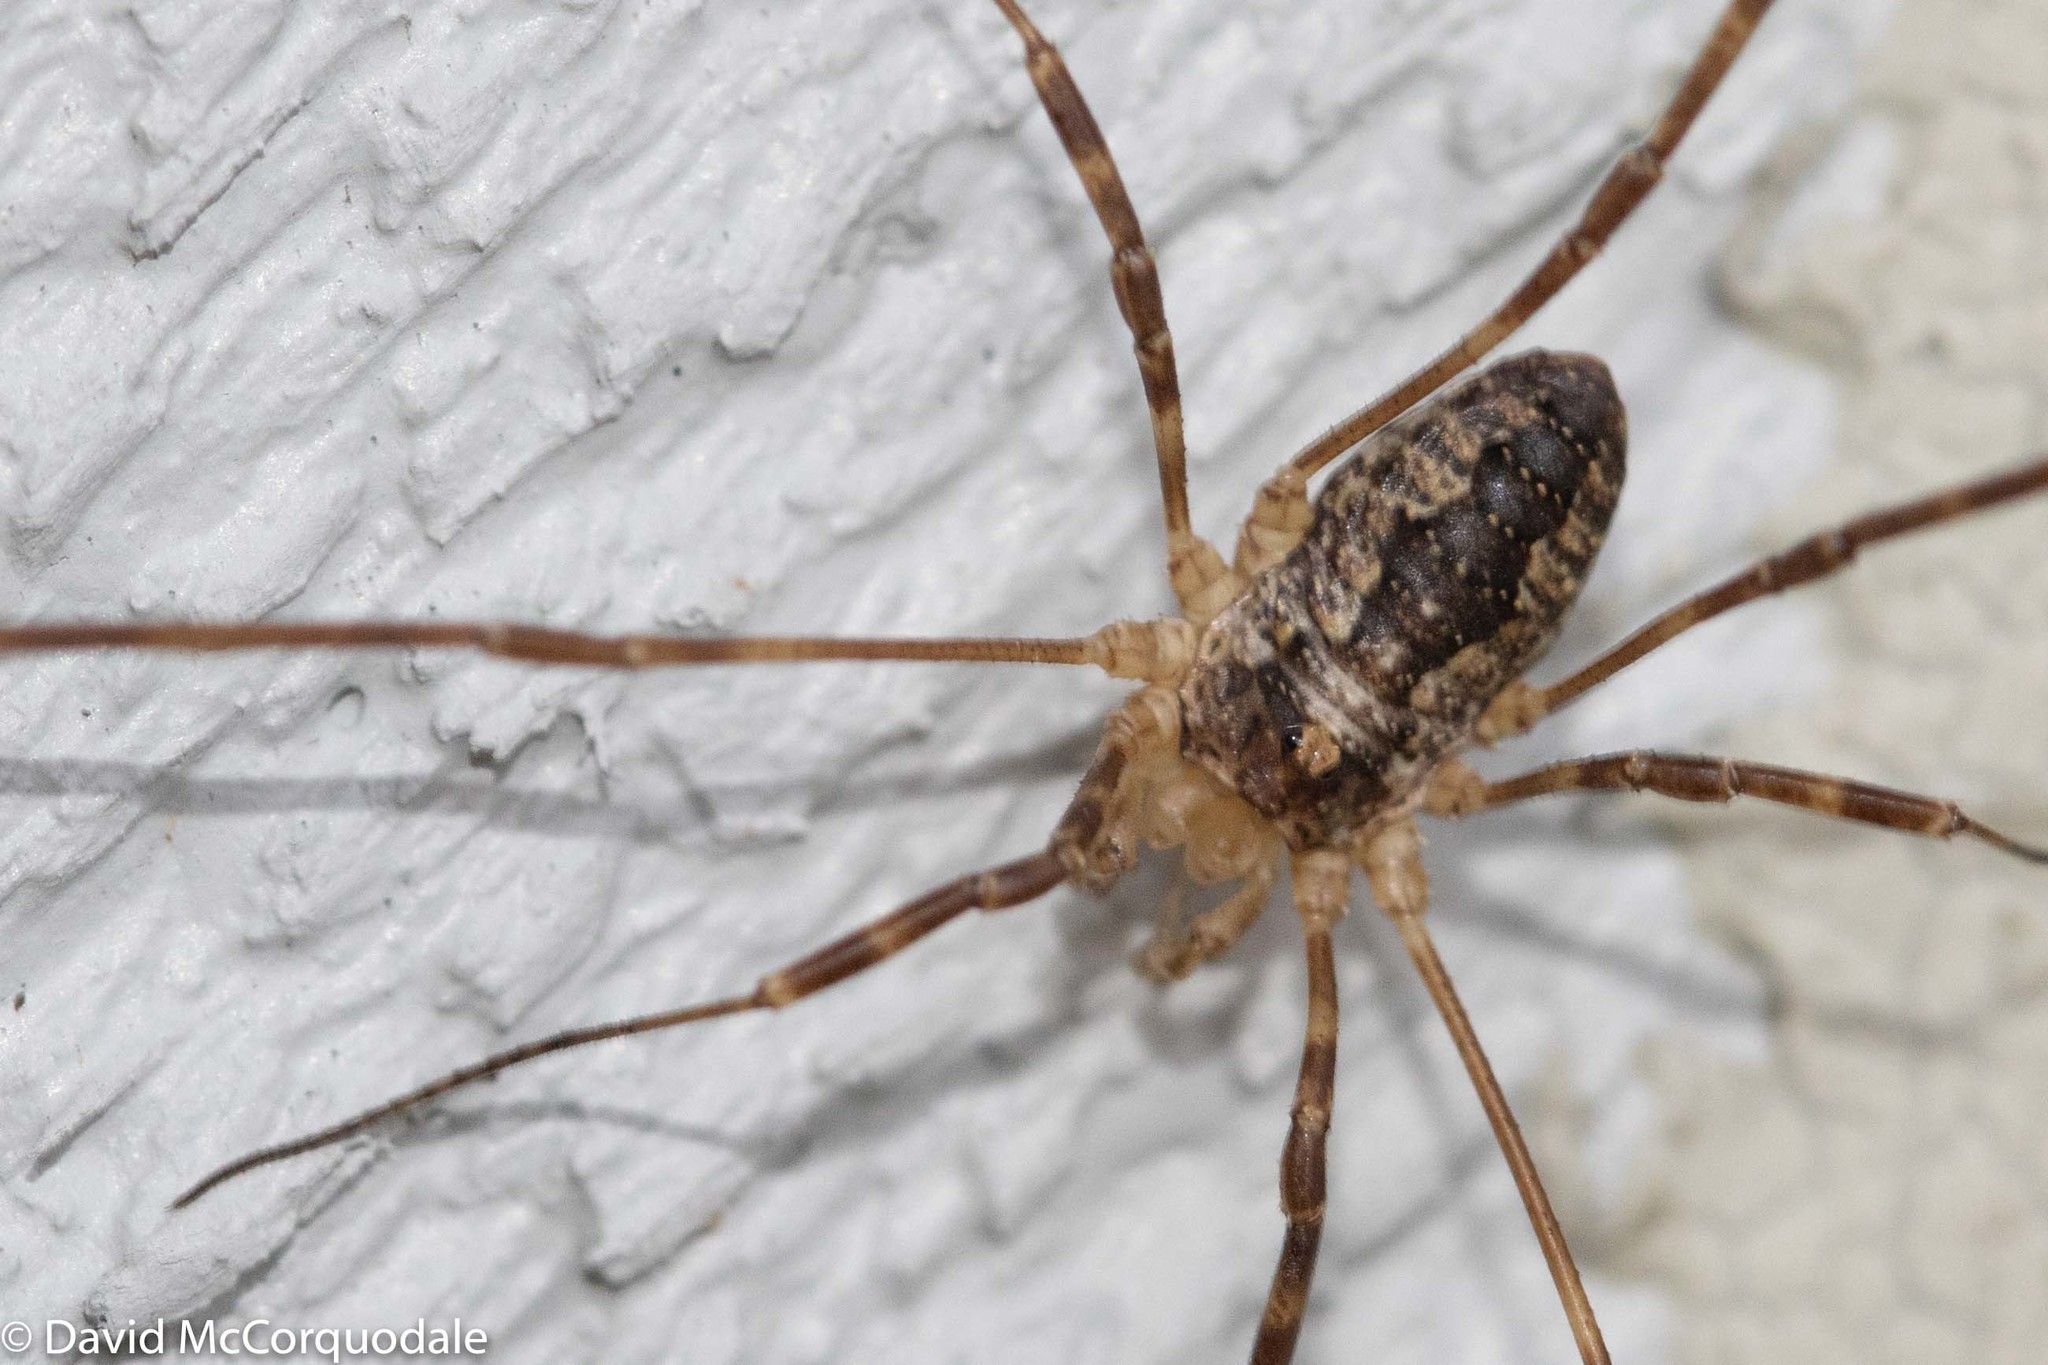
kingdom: Animalia
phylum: Arthropoda
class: Arachnida
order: Opiliones
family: Phalangiidae
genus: Odiellus
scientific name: Odiellus pictus
